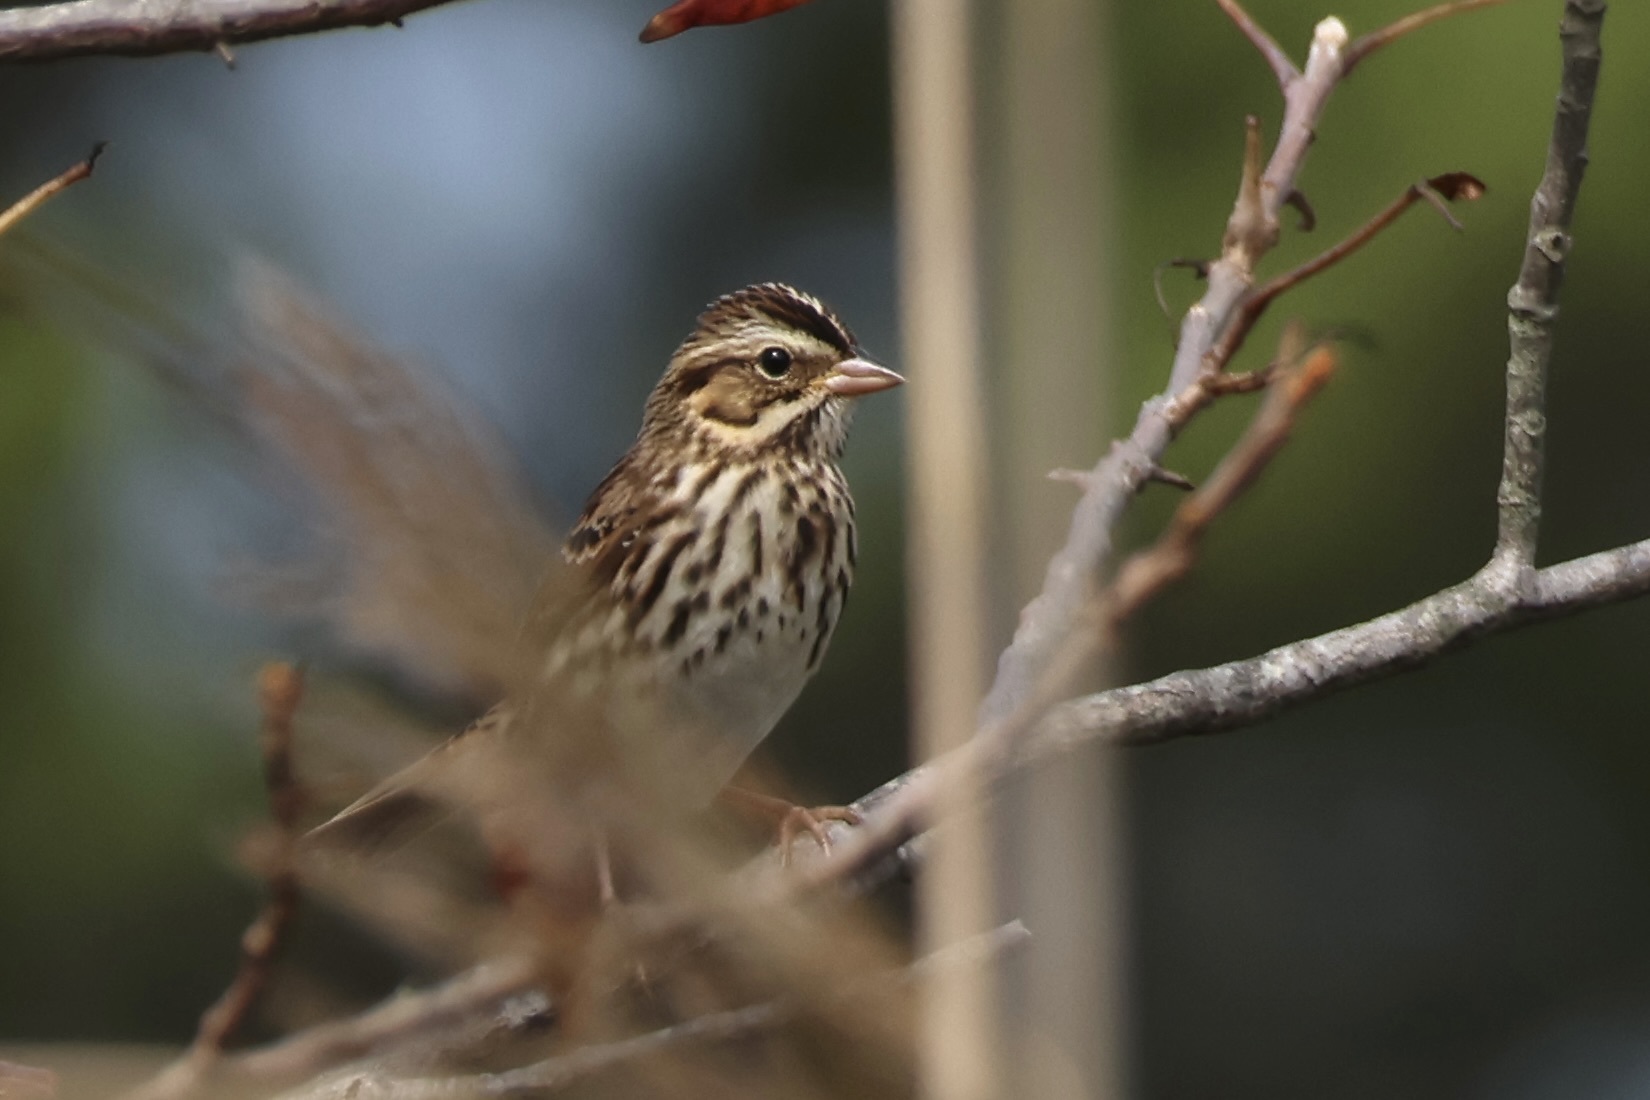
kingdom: Animalia
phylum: Chordata
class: Aves
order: Passeriformes
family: Passerellidae
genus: Passerculus
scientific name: Passerculus sandwichensis
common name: Savannah sparrow
